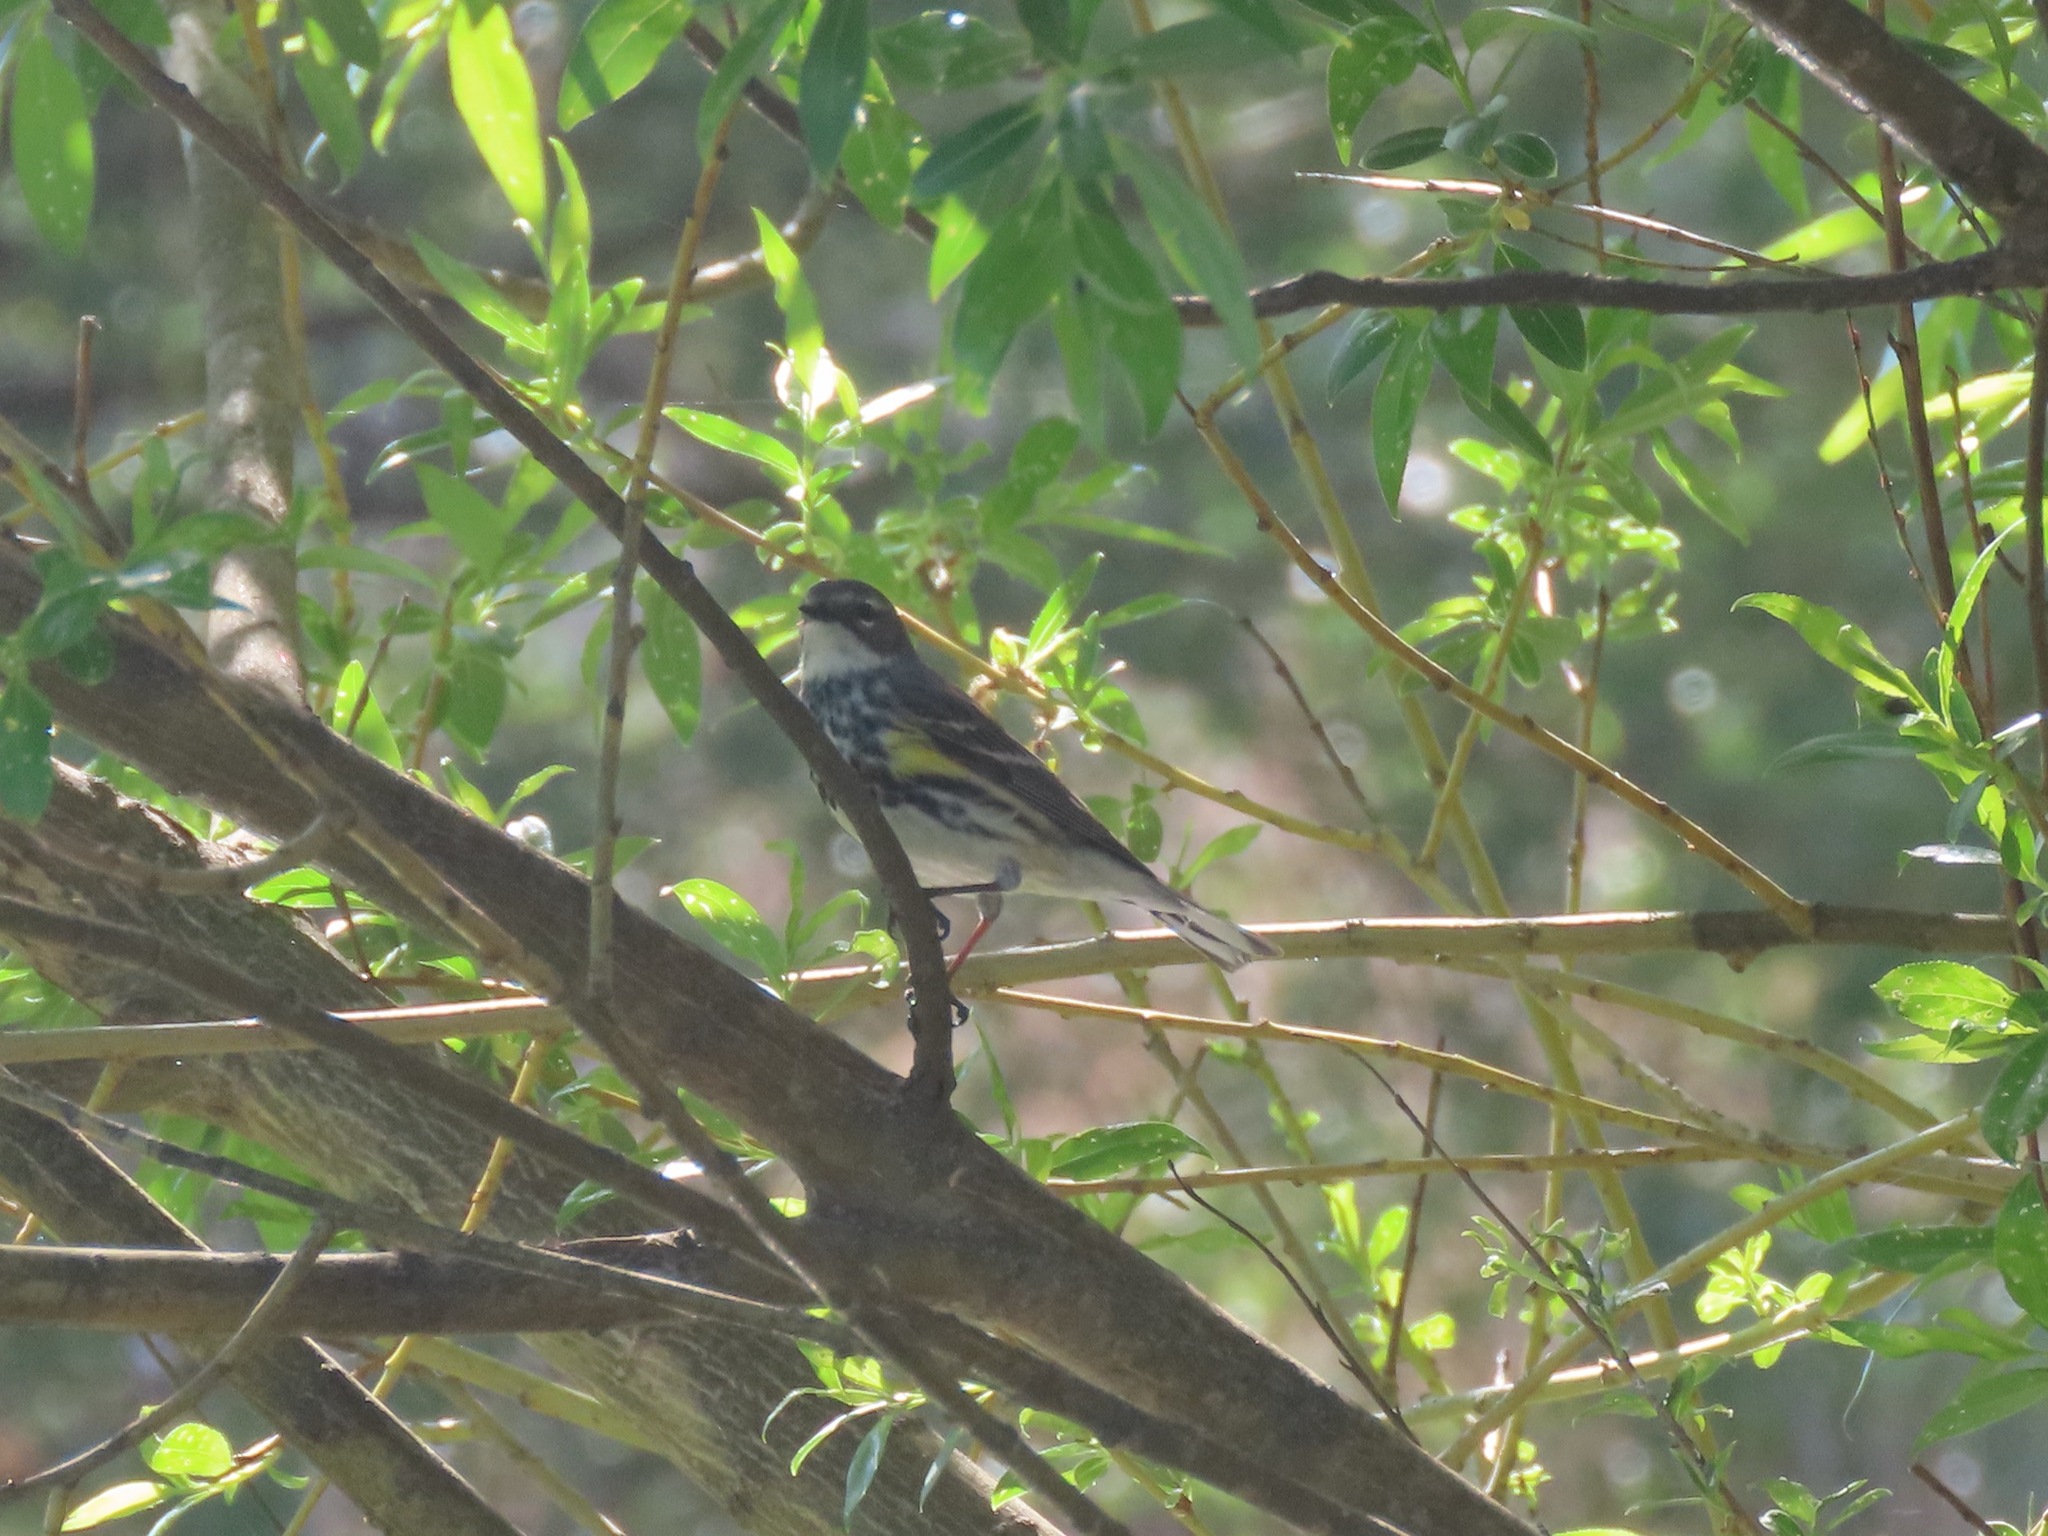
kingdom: Animalia
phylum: Chordata
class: Aves
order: Passeriformes
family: Parulidae
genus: Setophaga
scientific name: Setophaga coronata
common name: Myrtle warbler
